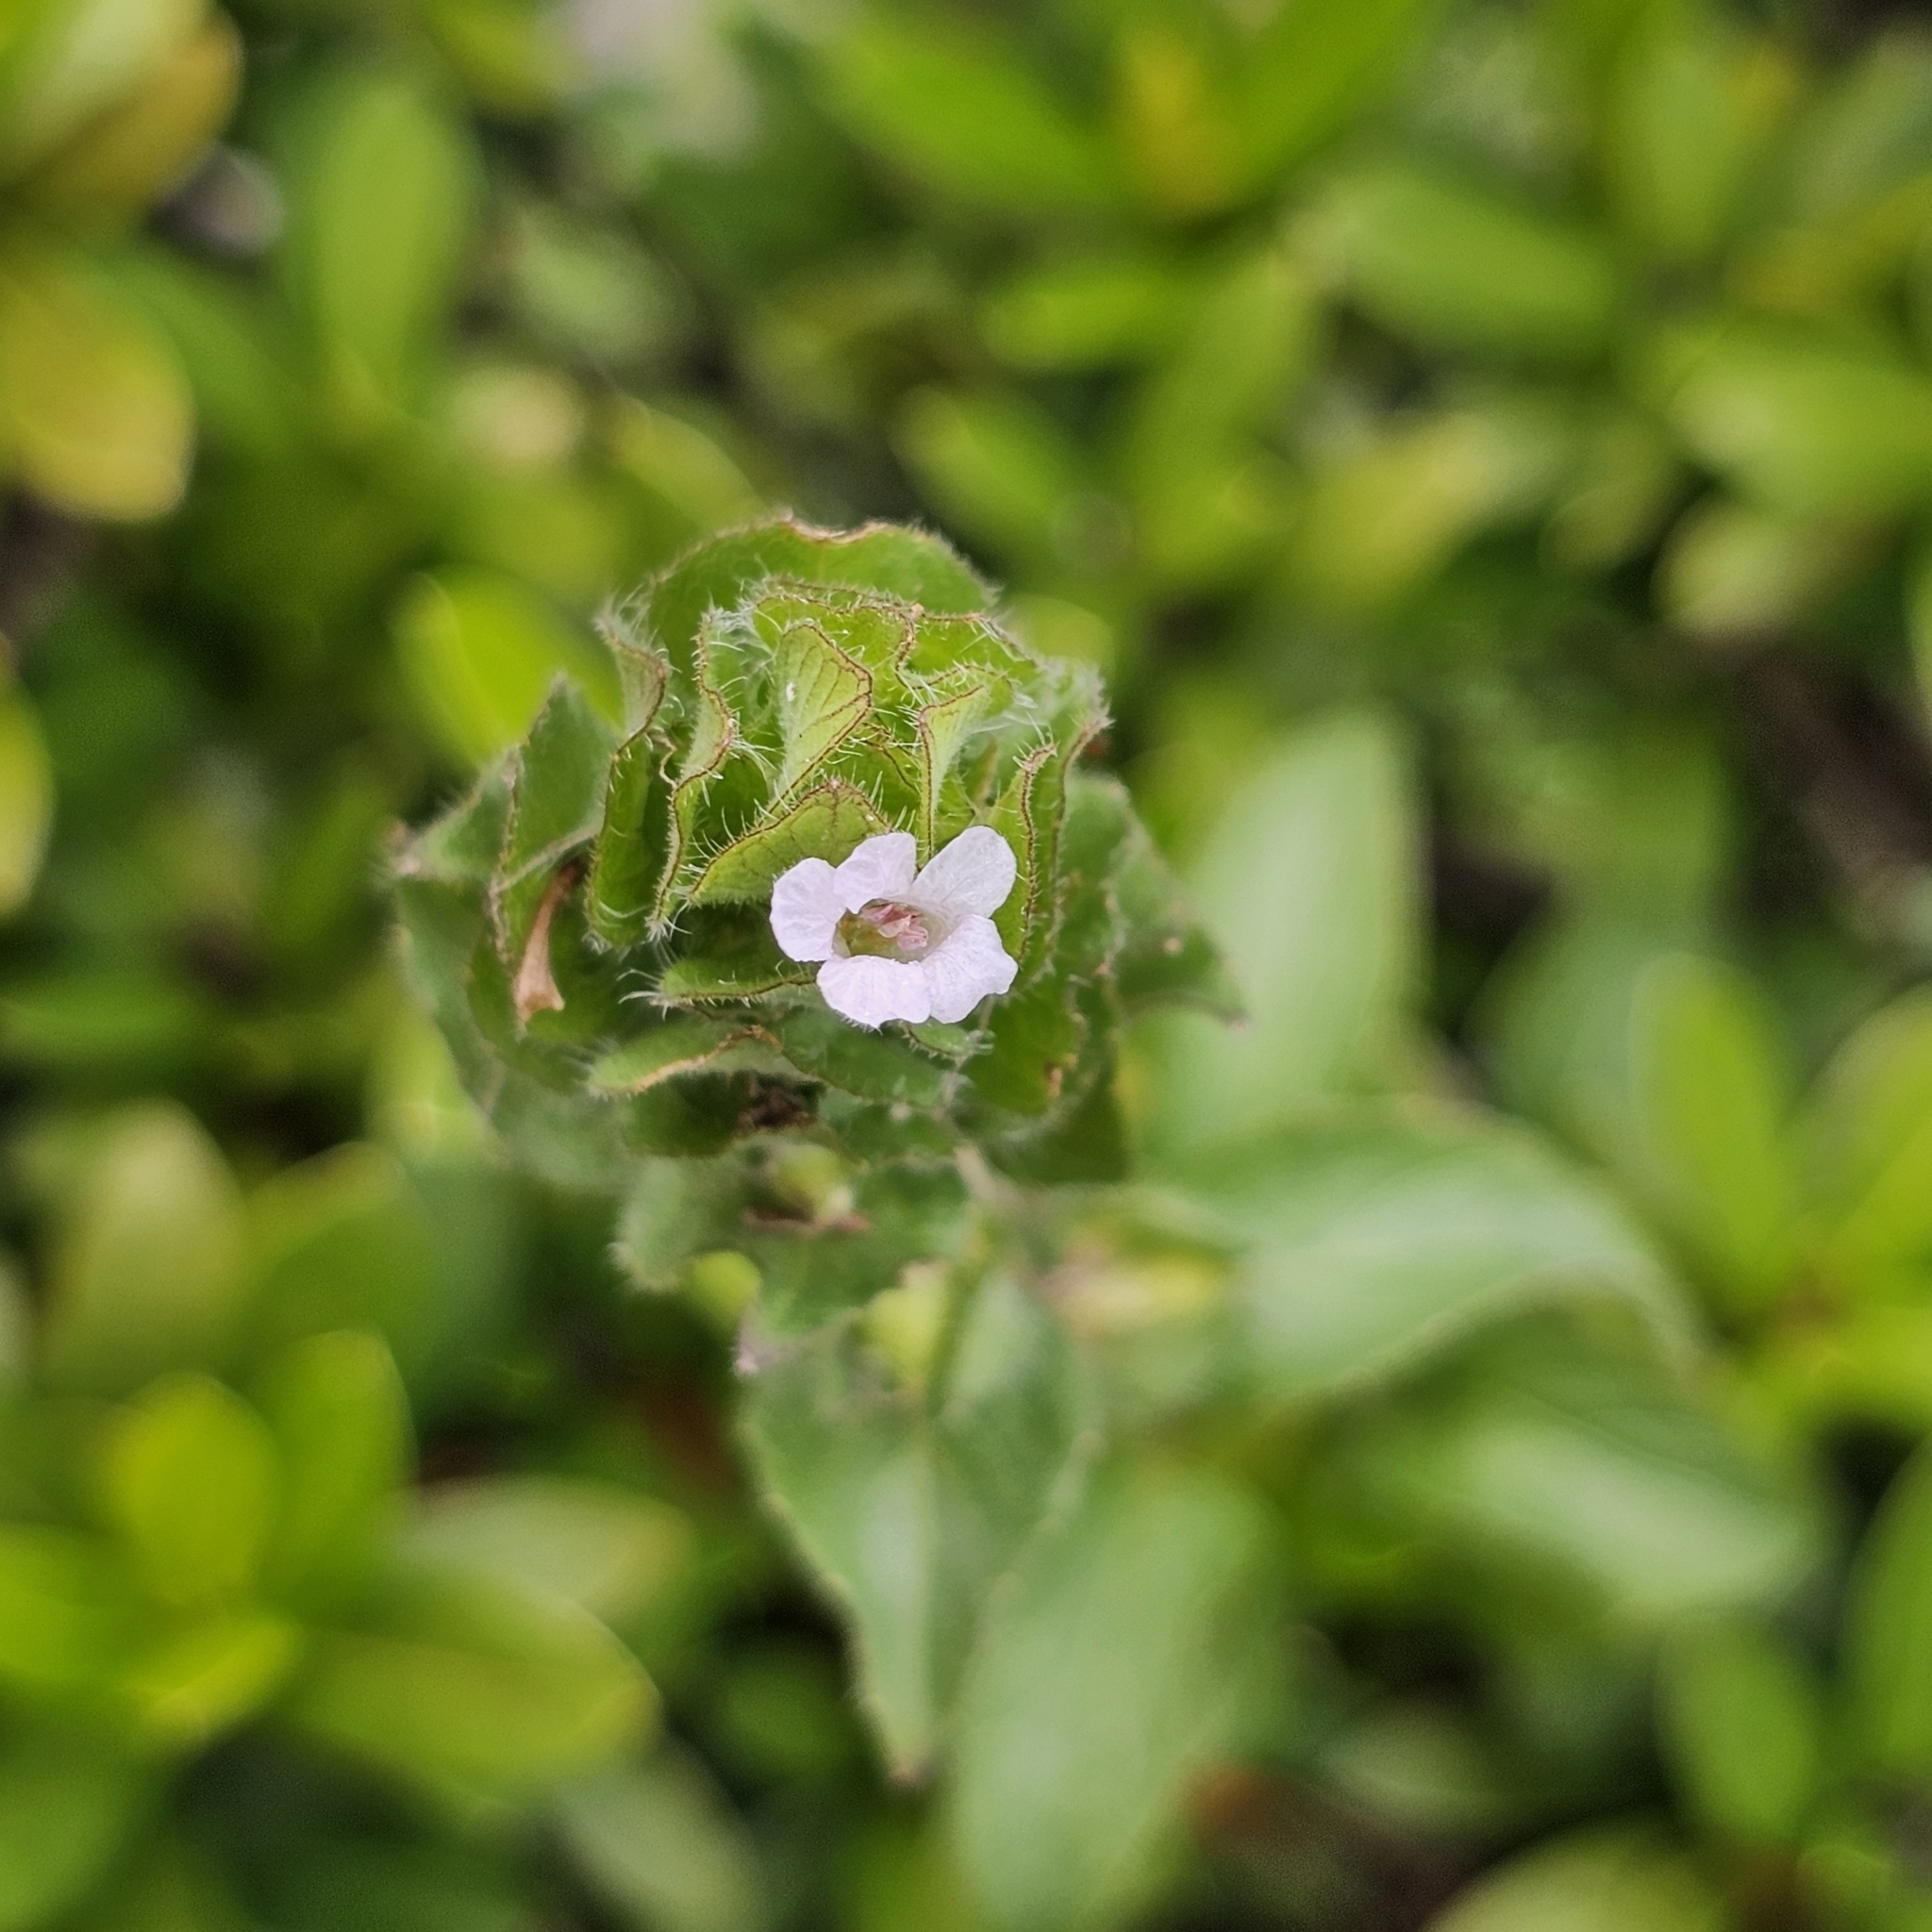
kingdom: Plantae
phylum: Tracheophyta
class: Magnoliopsida
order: Lamiales
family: Acanthaceae
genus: Ruellia
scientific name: Ruellia blechum
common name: Browne's blechum
